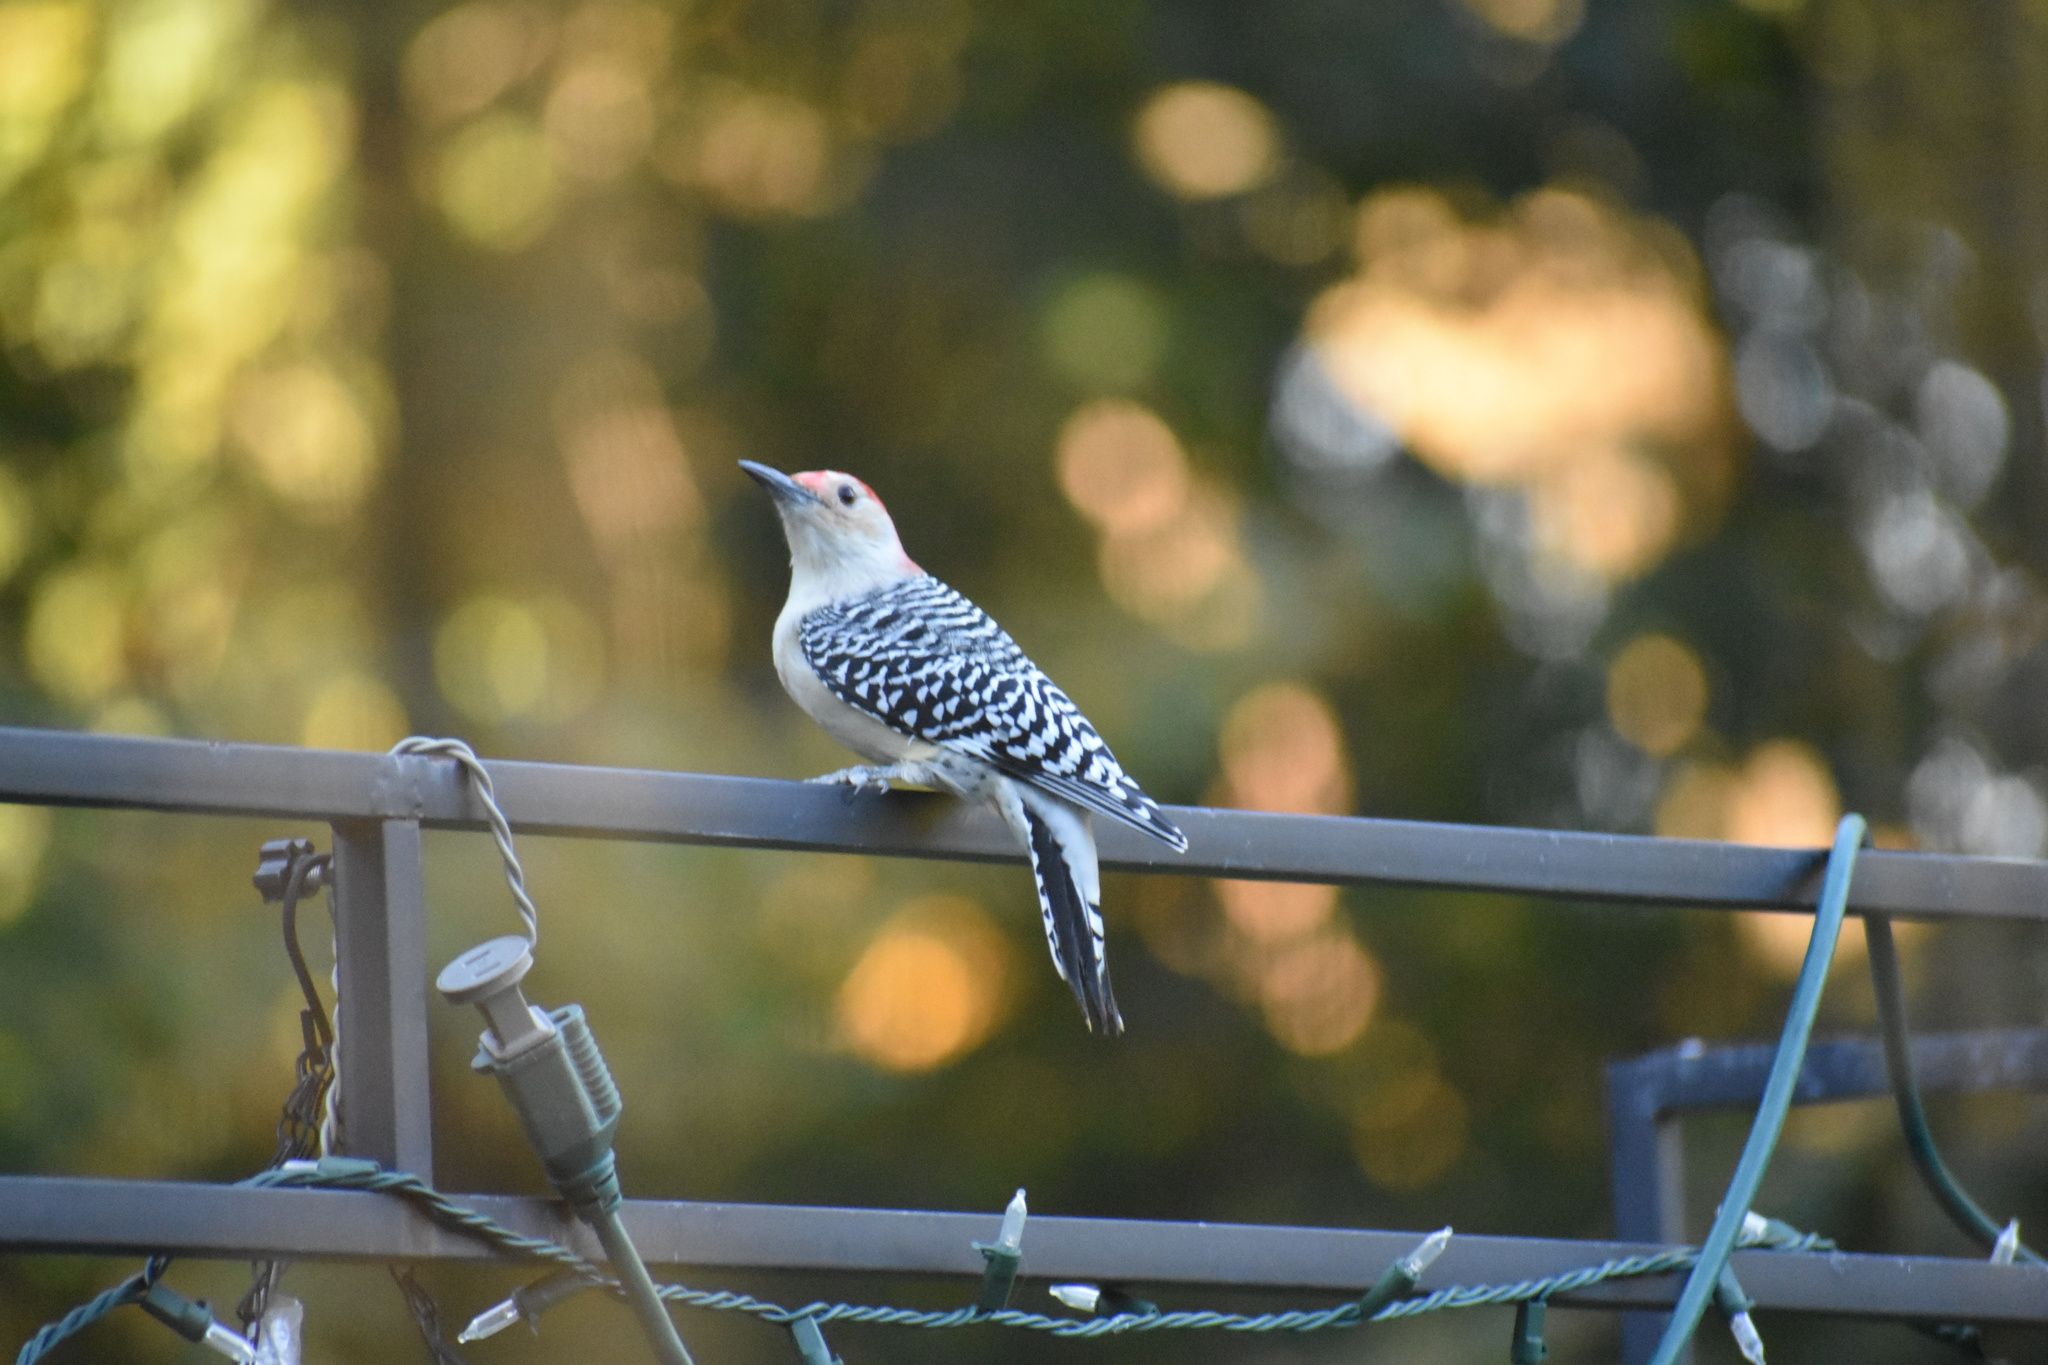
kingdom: Animalia
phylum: Chordata
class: Aves
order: Piciformes
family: Picidae
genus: Melanerpes
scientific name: Melanerpes carolinus
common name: Red-bellied woodpecker
